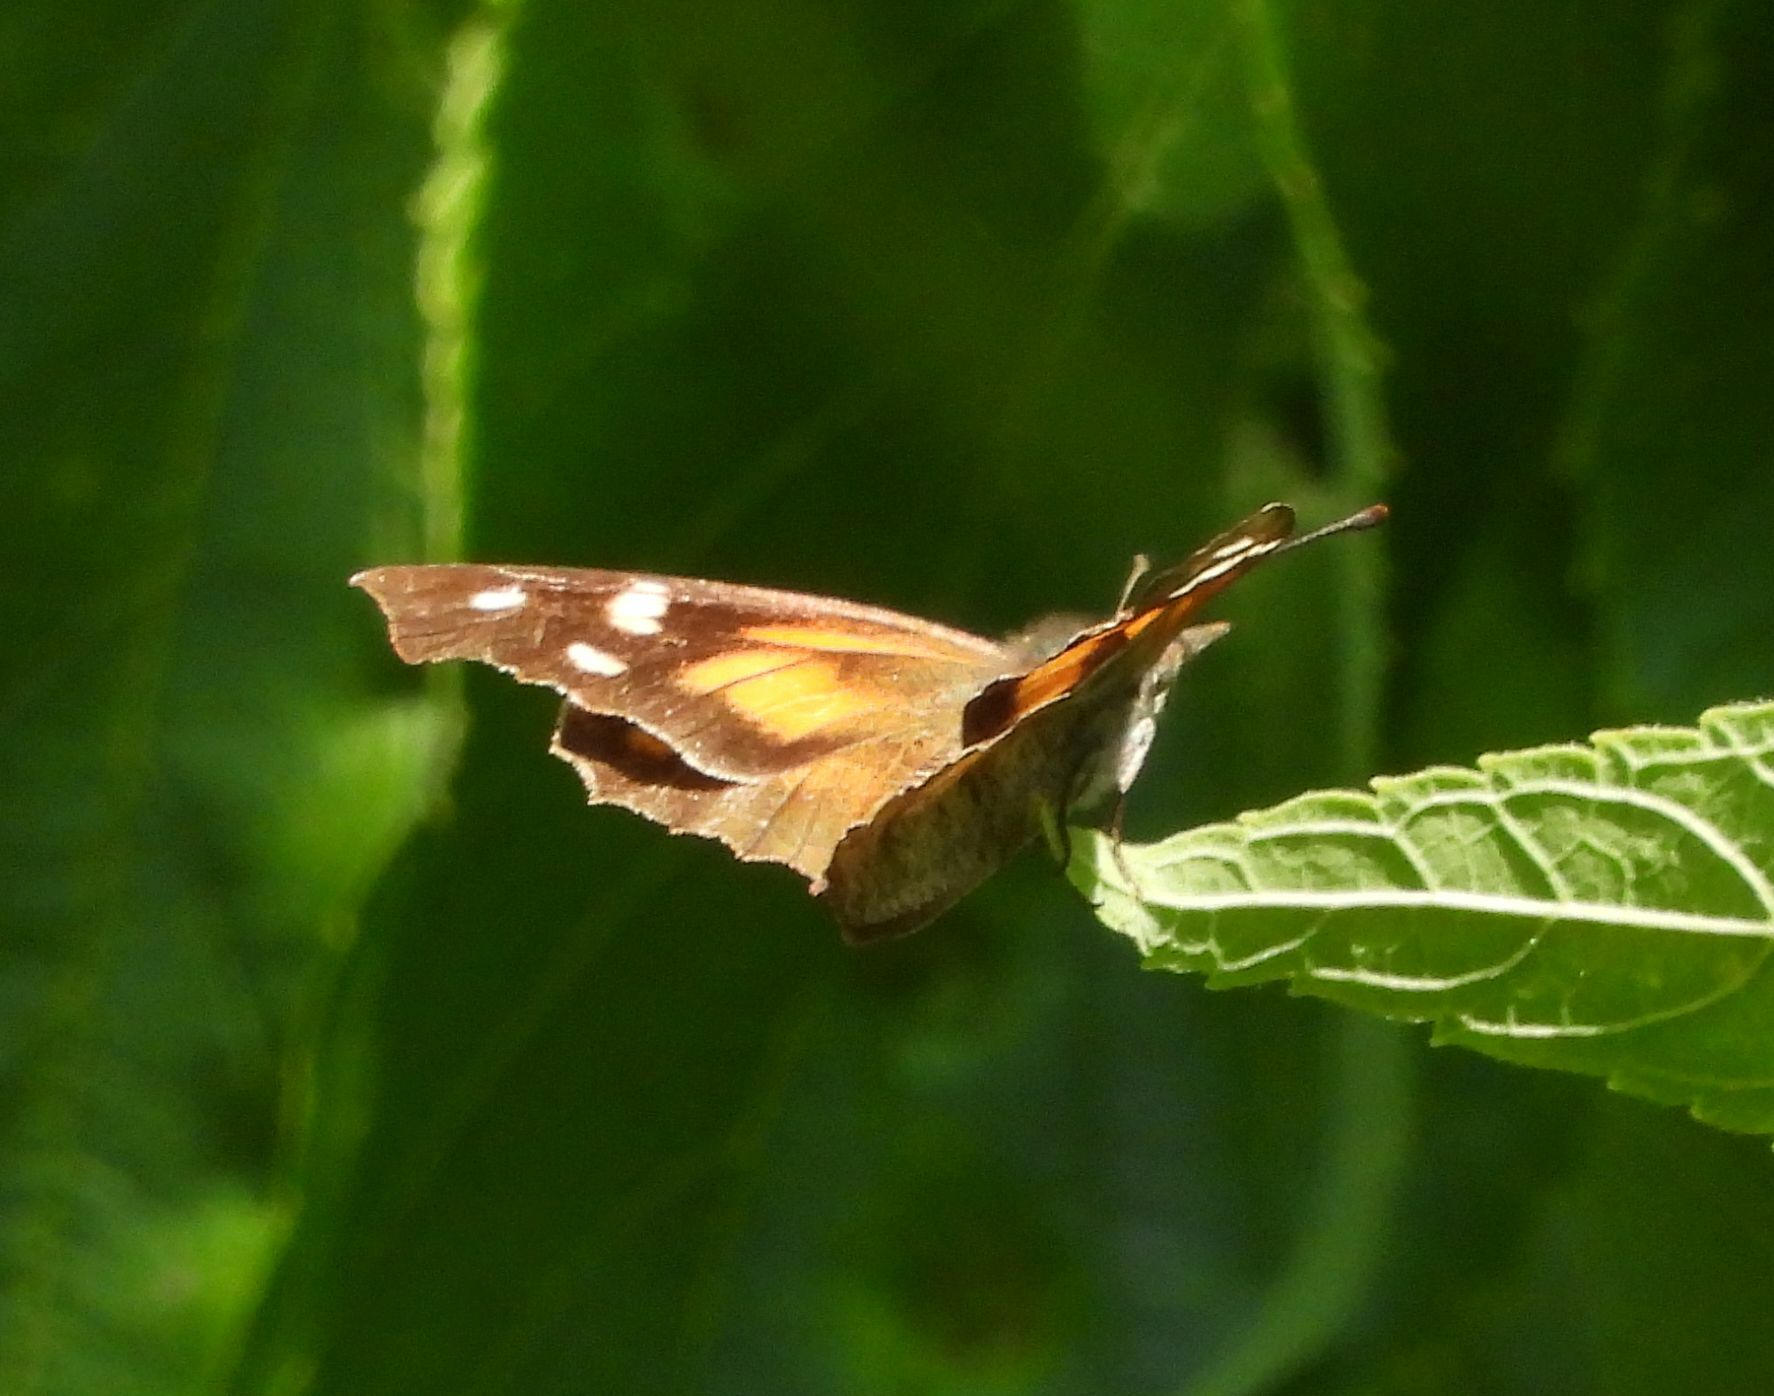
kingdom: Animalia
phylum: Arthropoda
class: Insecta
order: Lepidoptera
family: Nymphalidae
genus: Libytheana
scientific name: Libytheana carinenta
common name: American snout
